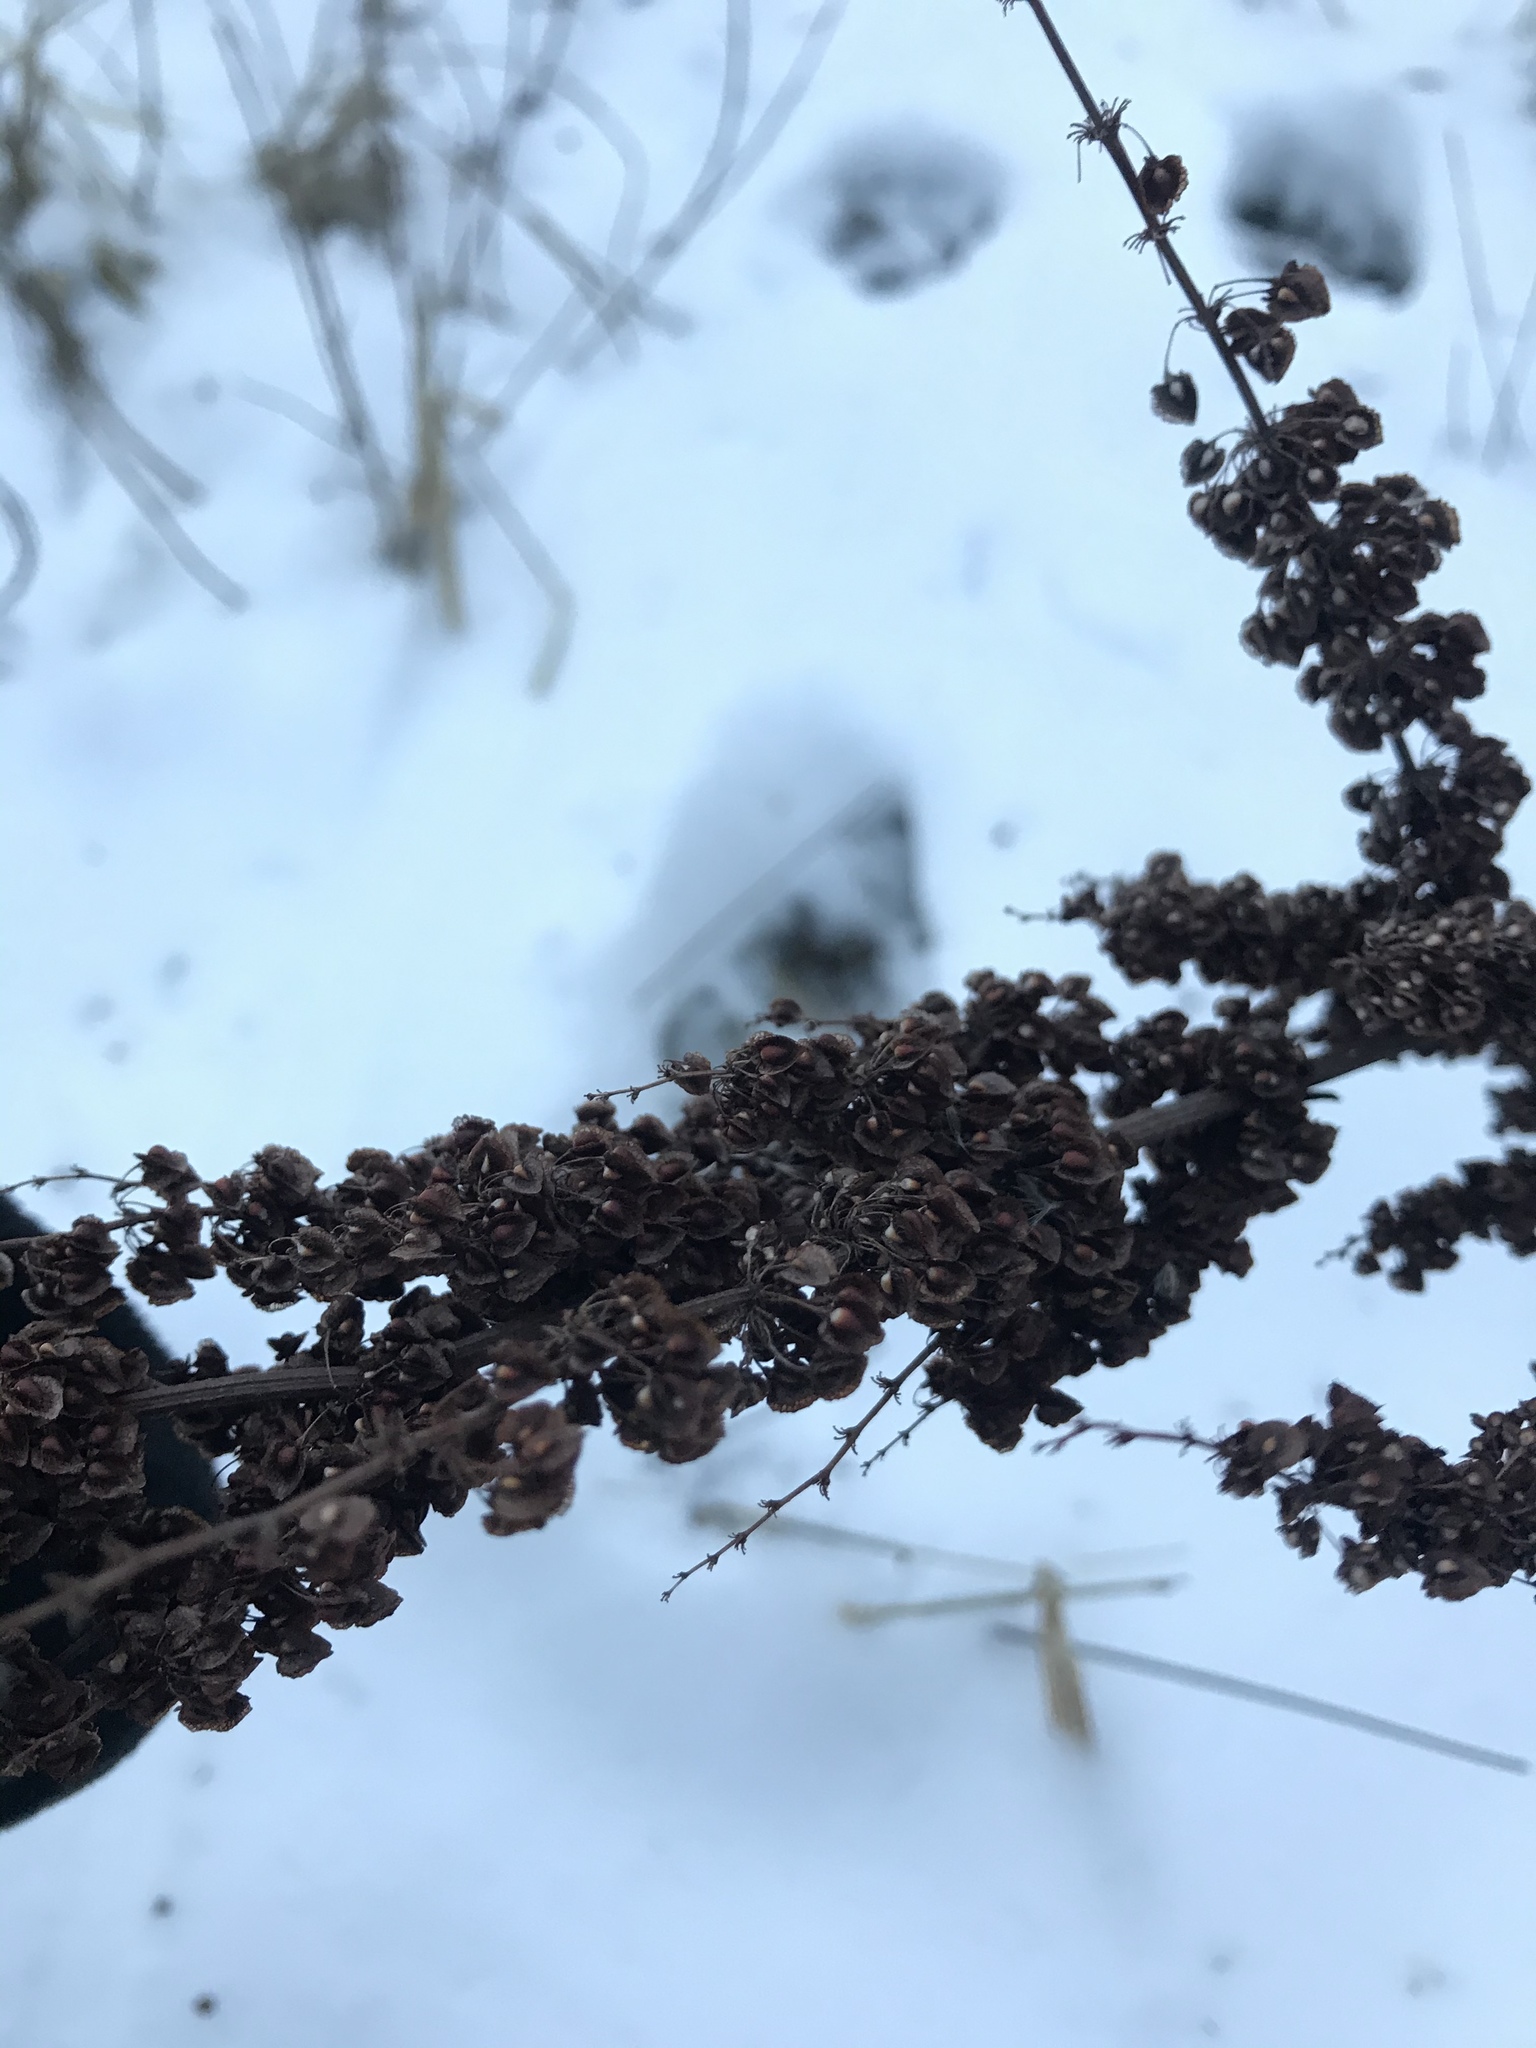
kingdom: Plantae
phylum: Tracheophyta
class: Magnoliopsida
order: Caryophyllales
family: Polygonaceae
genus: Rumex
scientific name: Rumex crispus
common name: Curled dock
